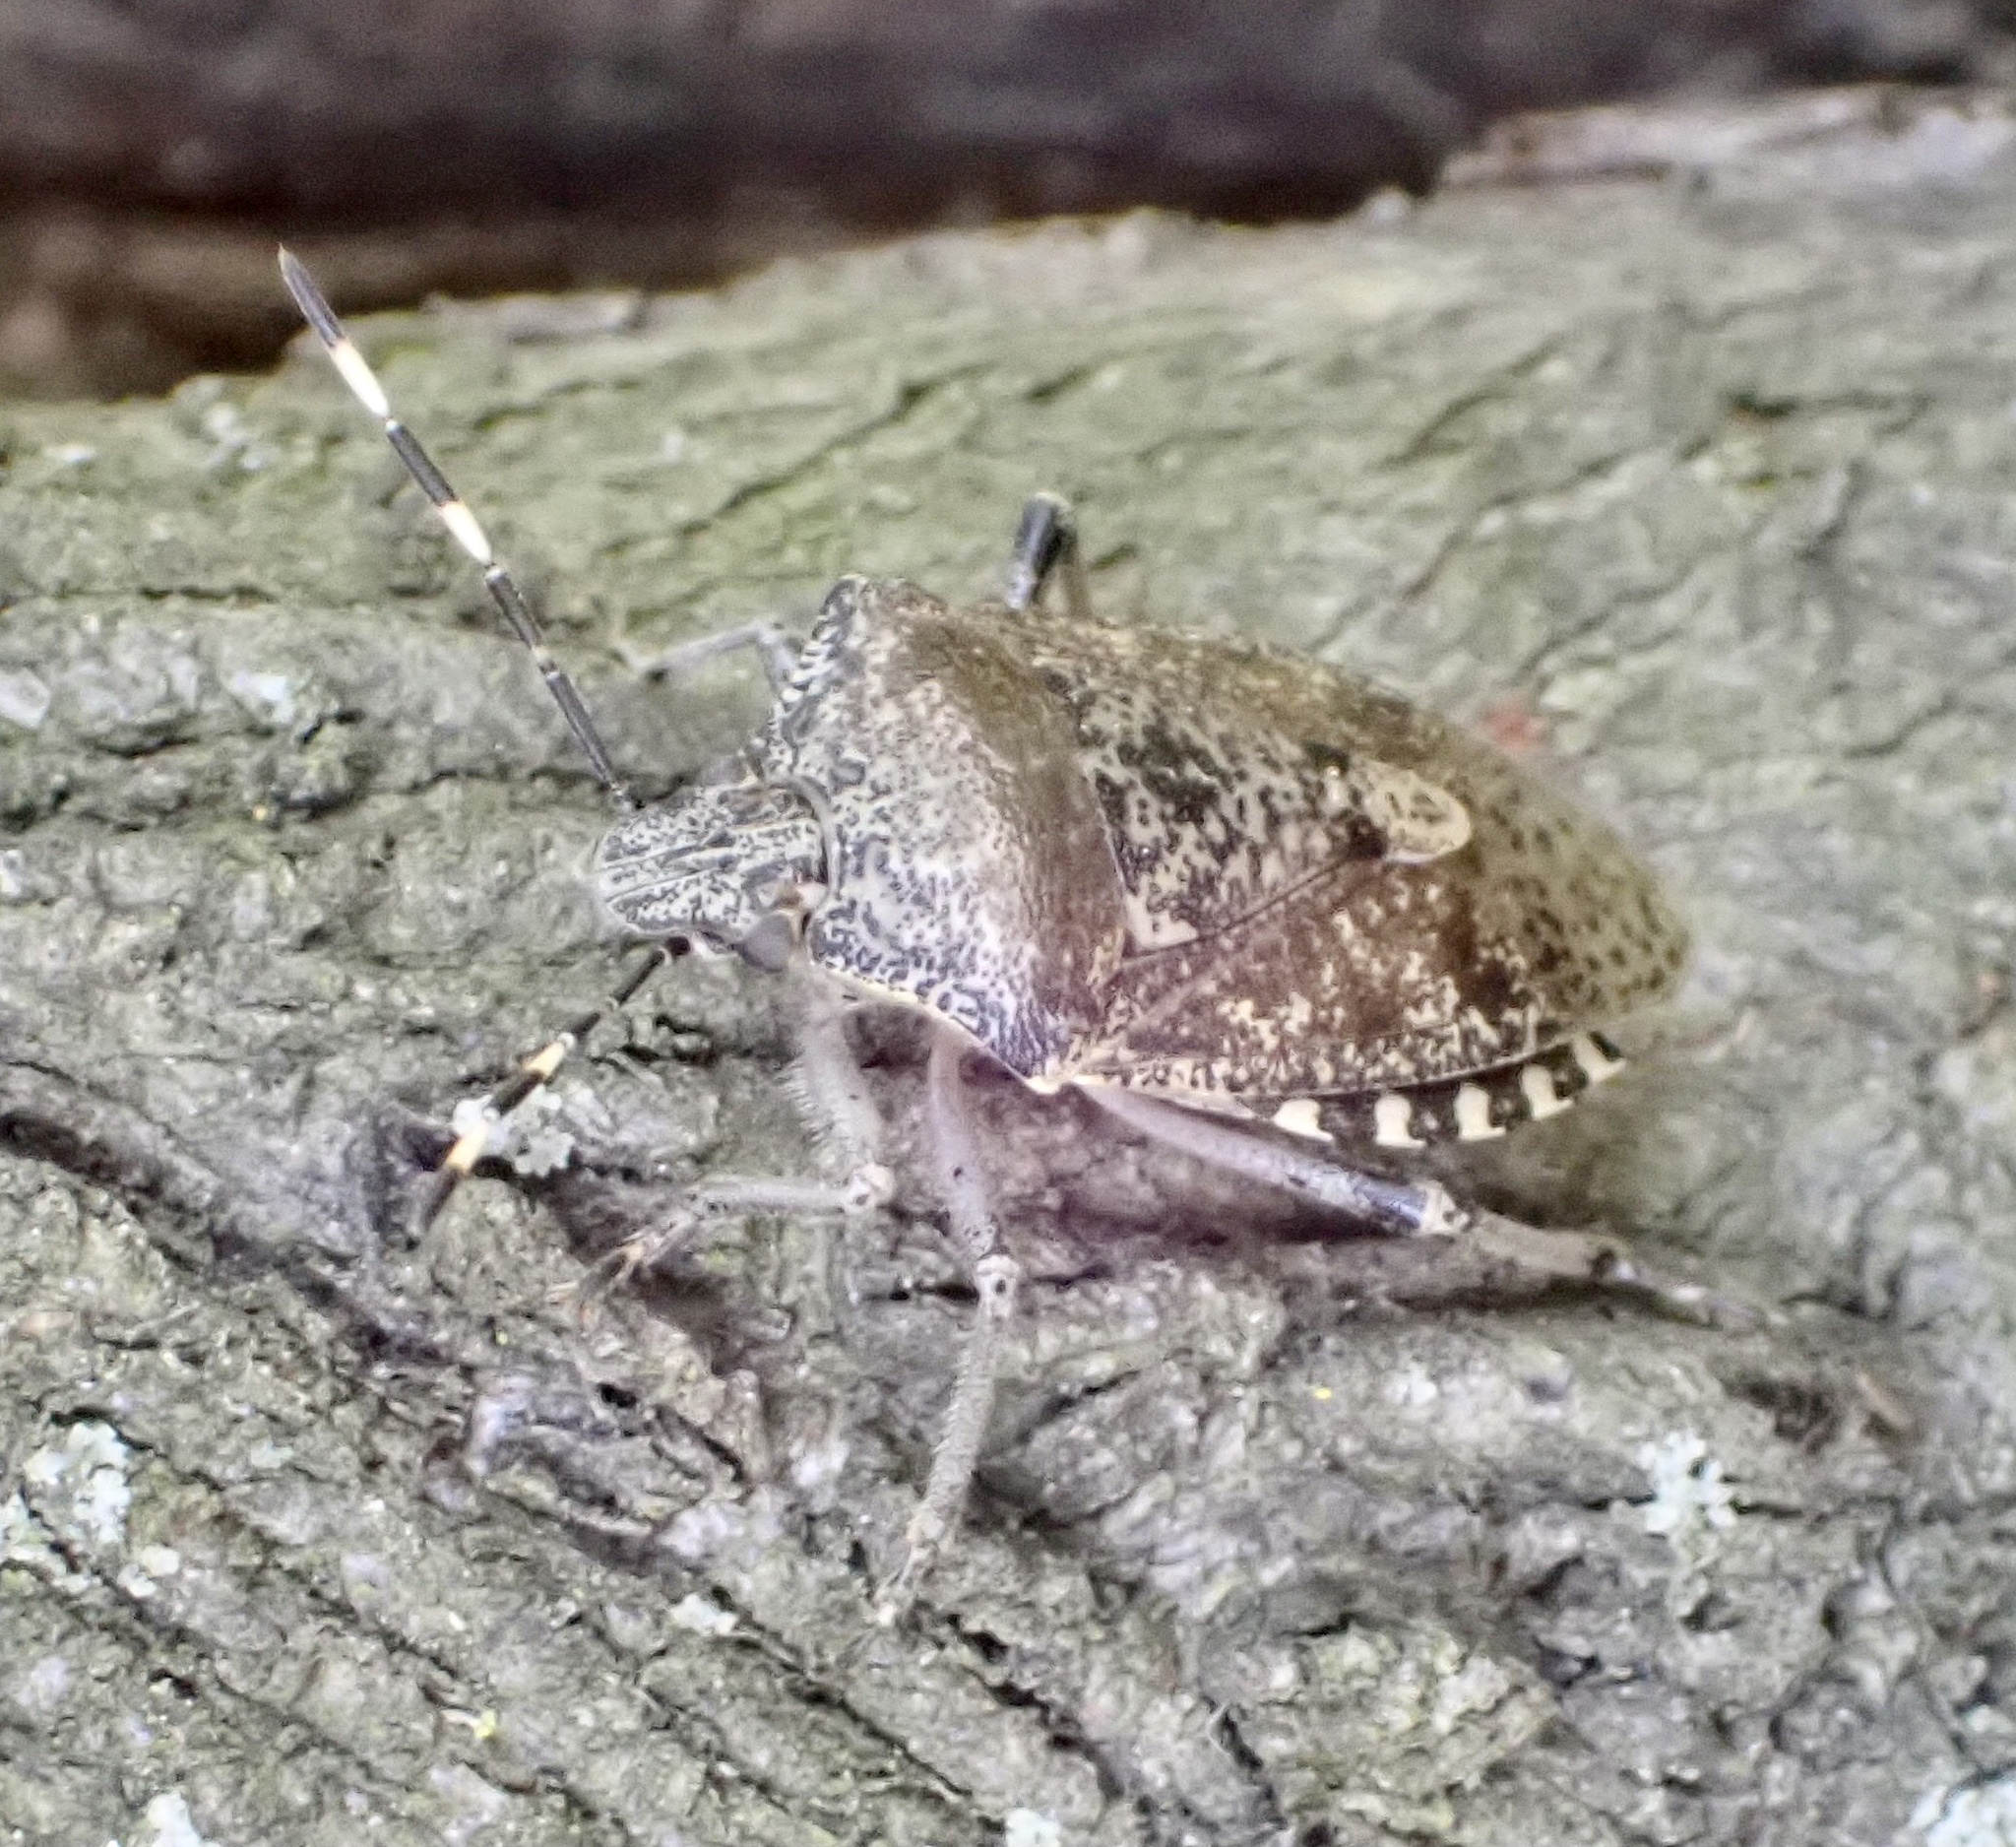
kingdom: Animalia
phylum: Arthropoda
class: Insecta
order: Hemiptera
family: Pentatomidae
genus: Rhaphigaster
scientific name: Rhaphigaster nebulosa
